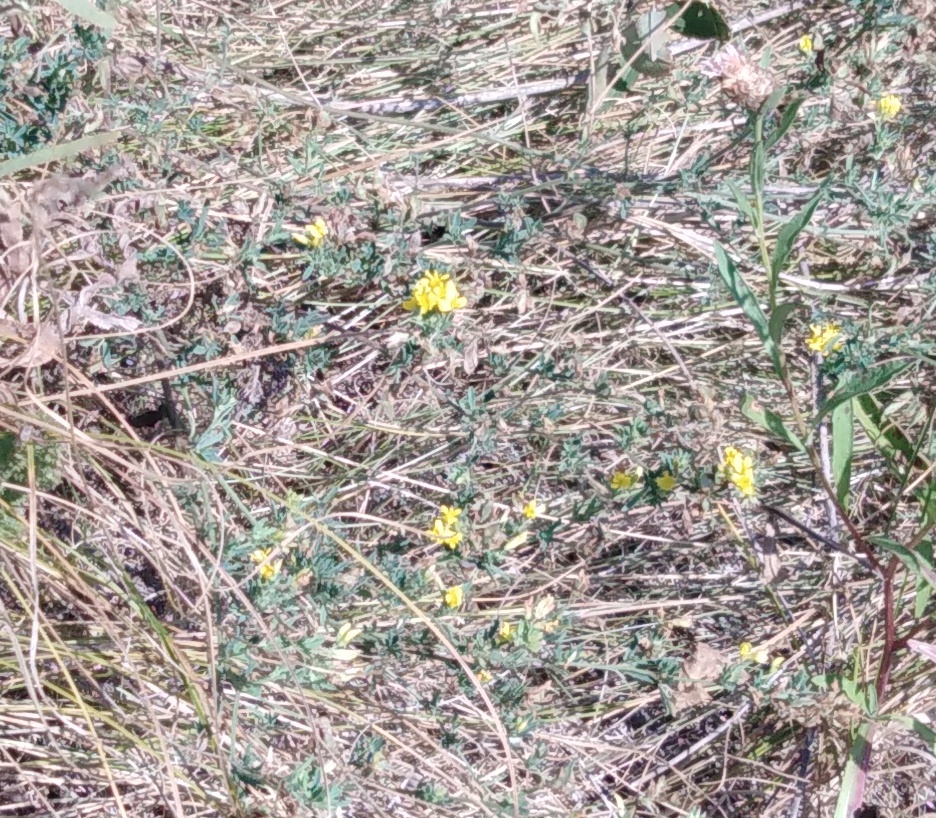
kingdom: Plantae
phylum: Tracheophyta
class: Magnoliopsida
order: Fabales
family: Fabaceae
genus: Medicago
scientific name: Medicago falcata
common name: Sickle medick
